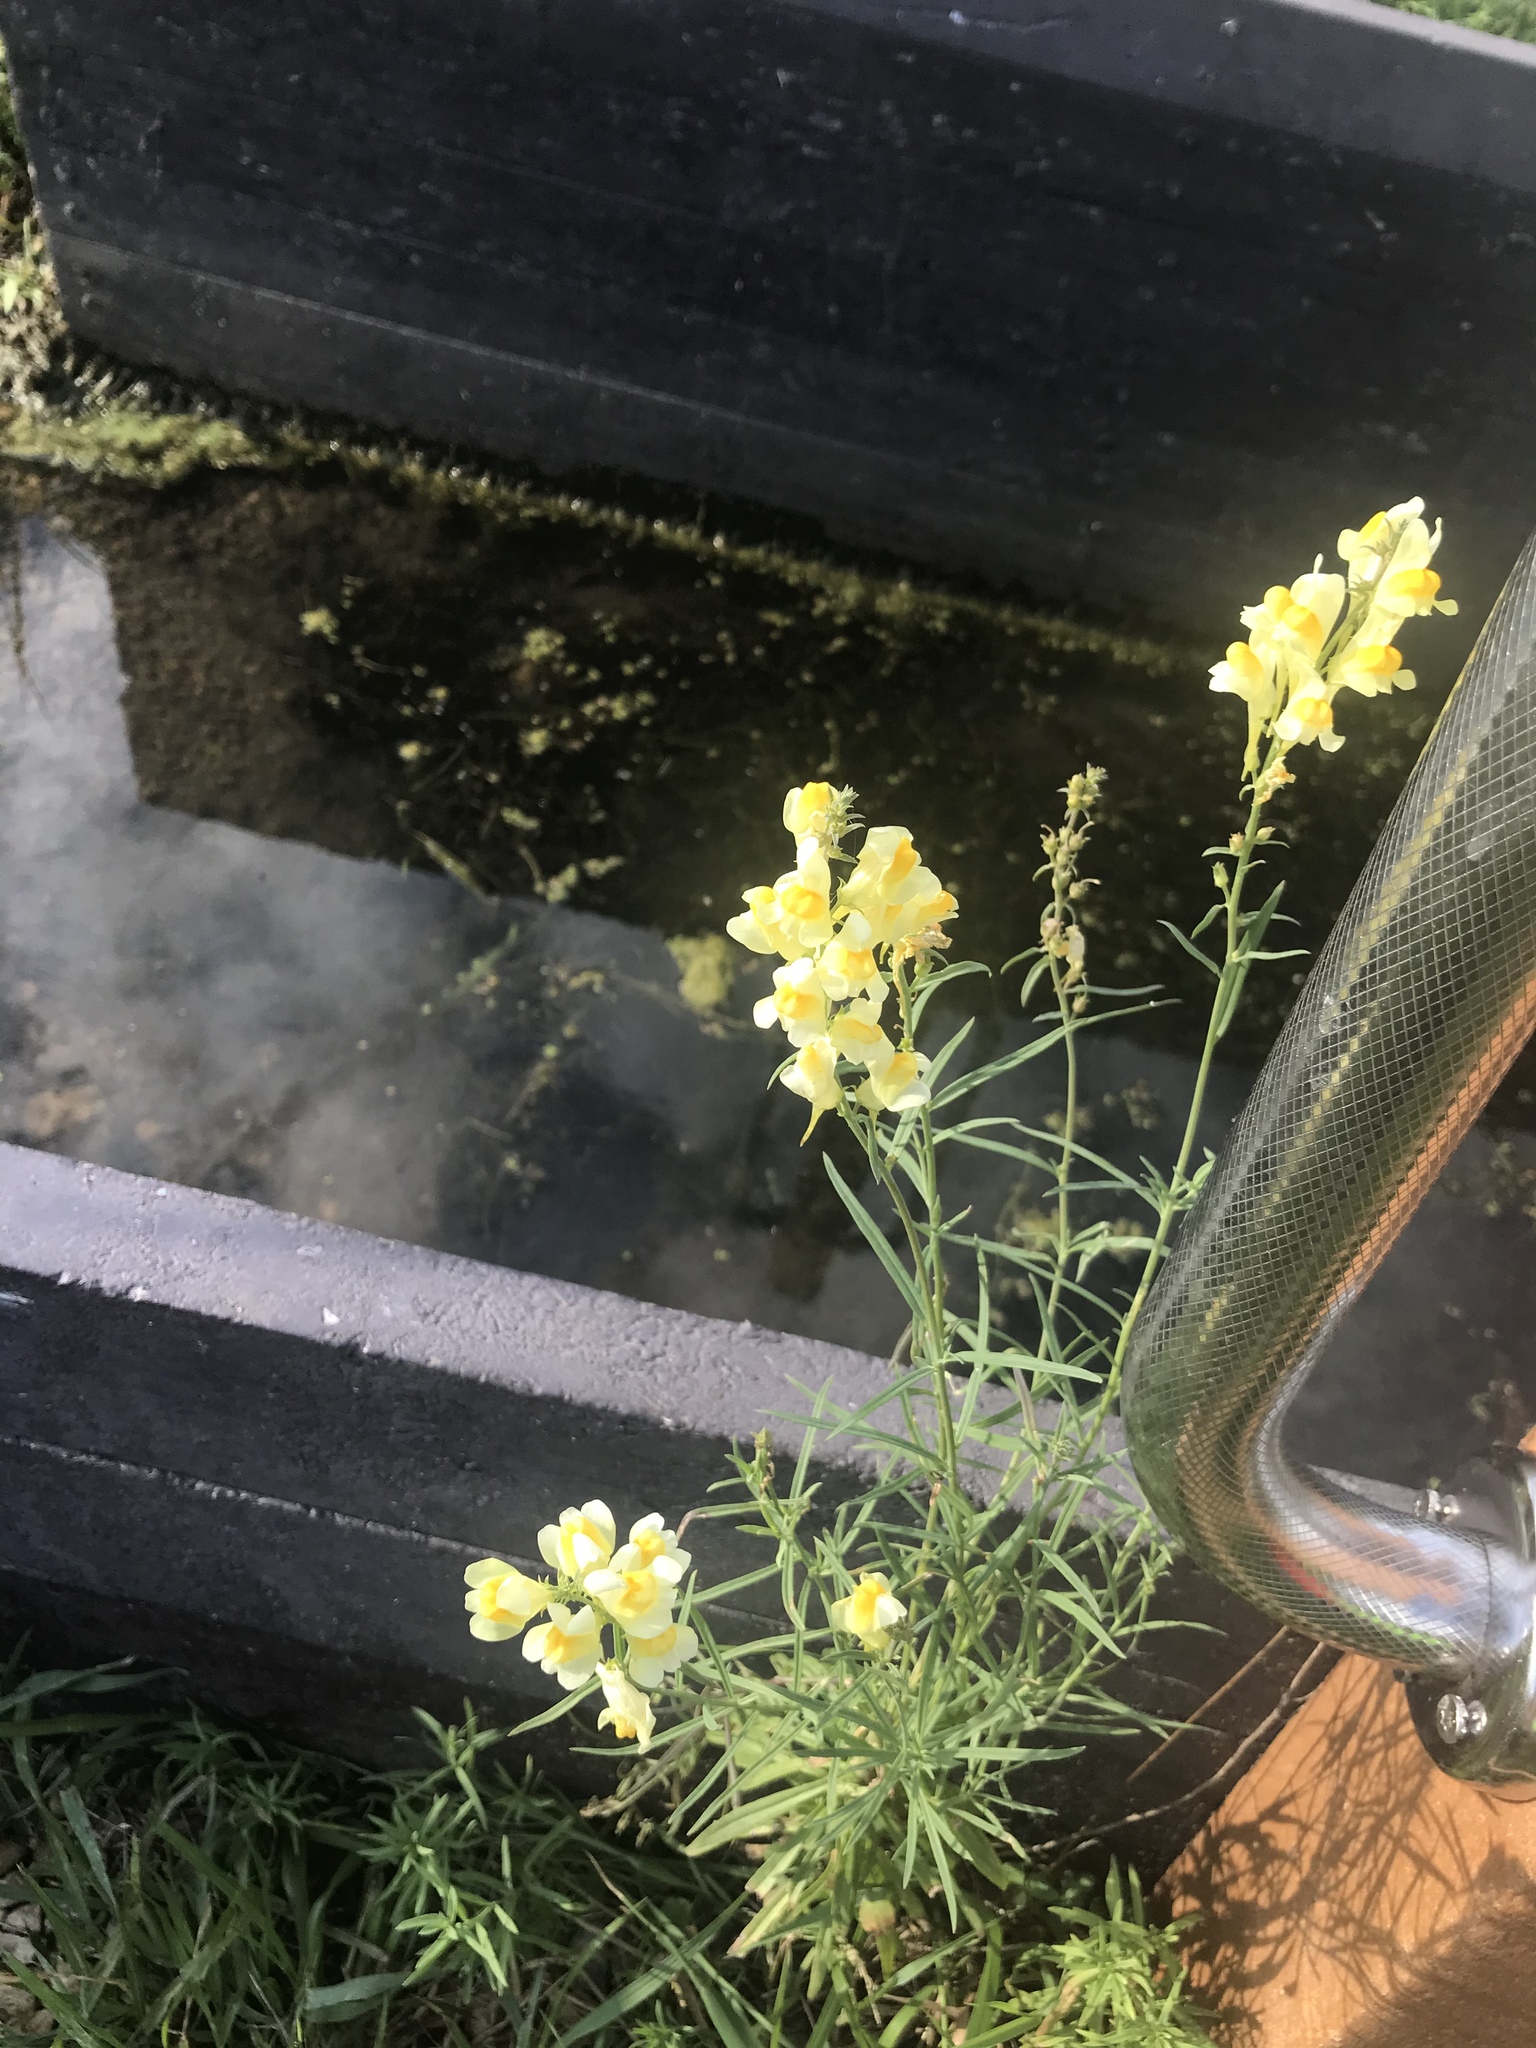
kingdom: Plantae
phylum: Tracheophyta
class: Magnoliopsida
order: Lamiales
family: Plantaginaceae
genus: Linaria
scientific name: Linaria vulgaris
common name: Butter and eggs
